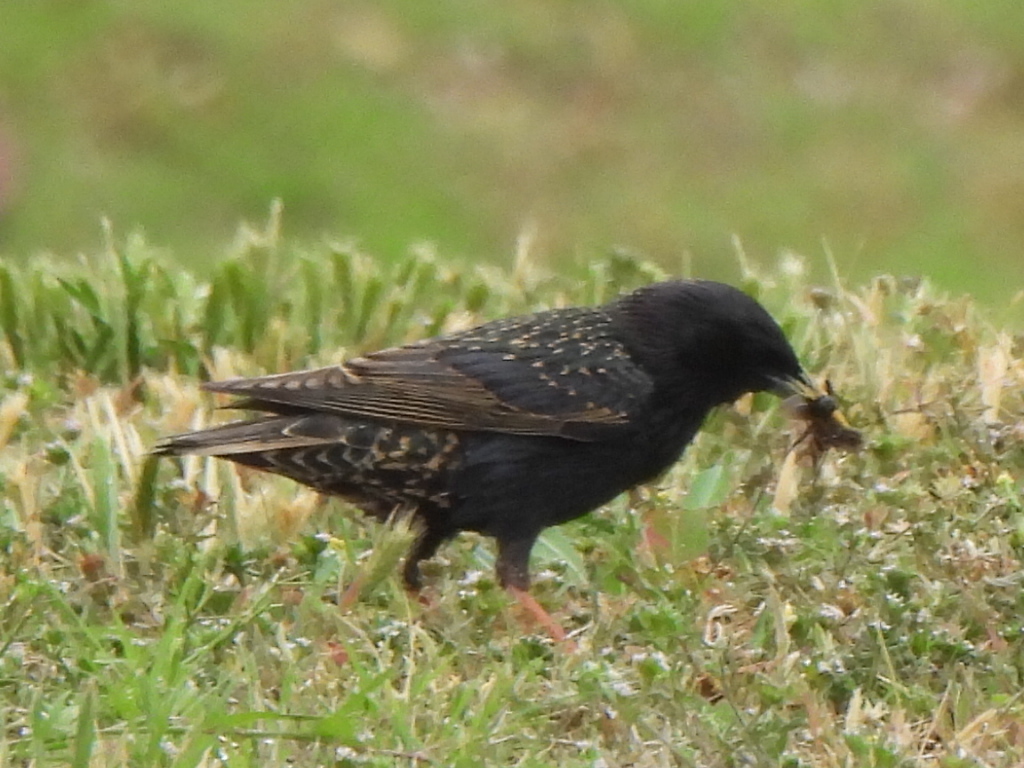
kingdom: Animalia
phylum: Chordata
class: Aves
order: Passeriformes
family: Sturnidae
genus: Sturnus
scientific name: Sturnus vulgaris
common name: Common starling
